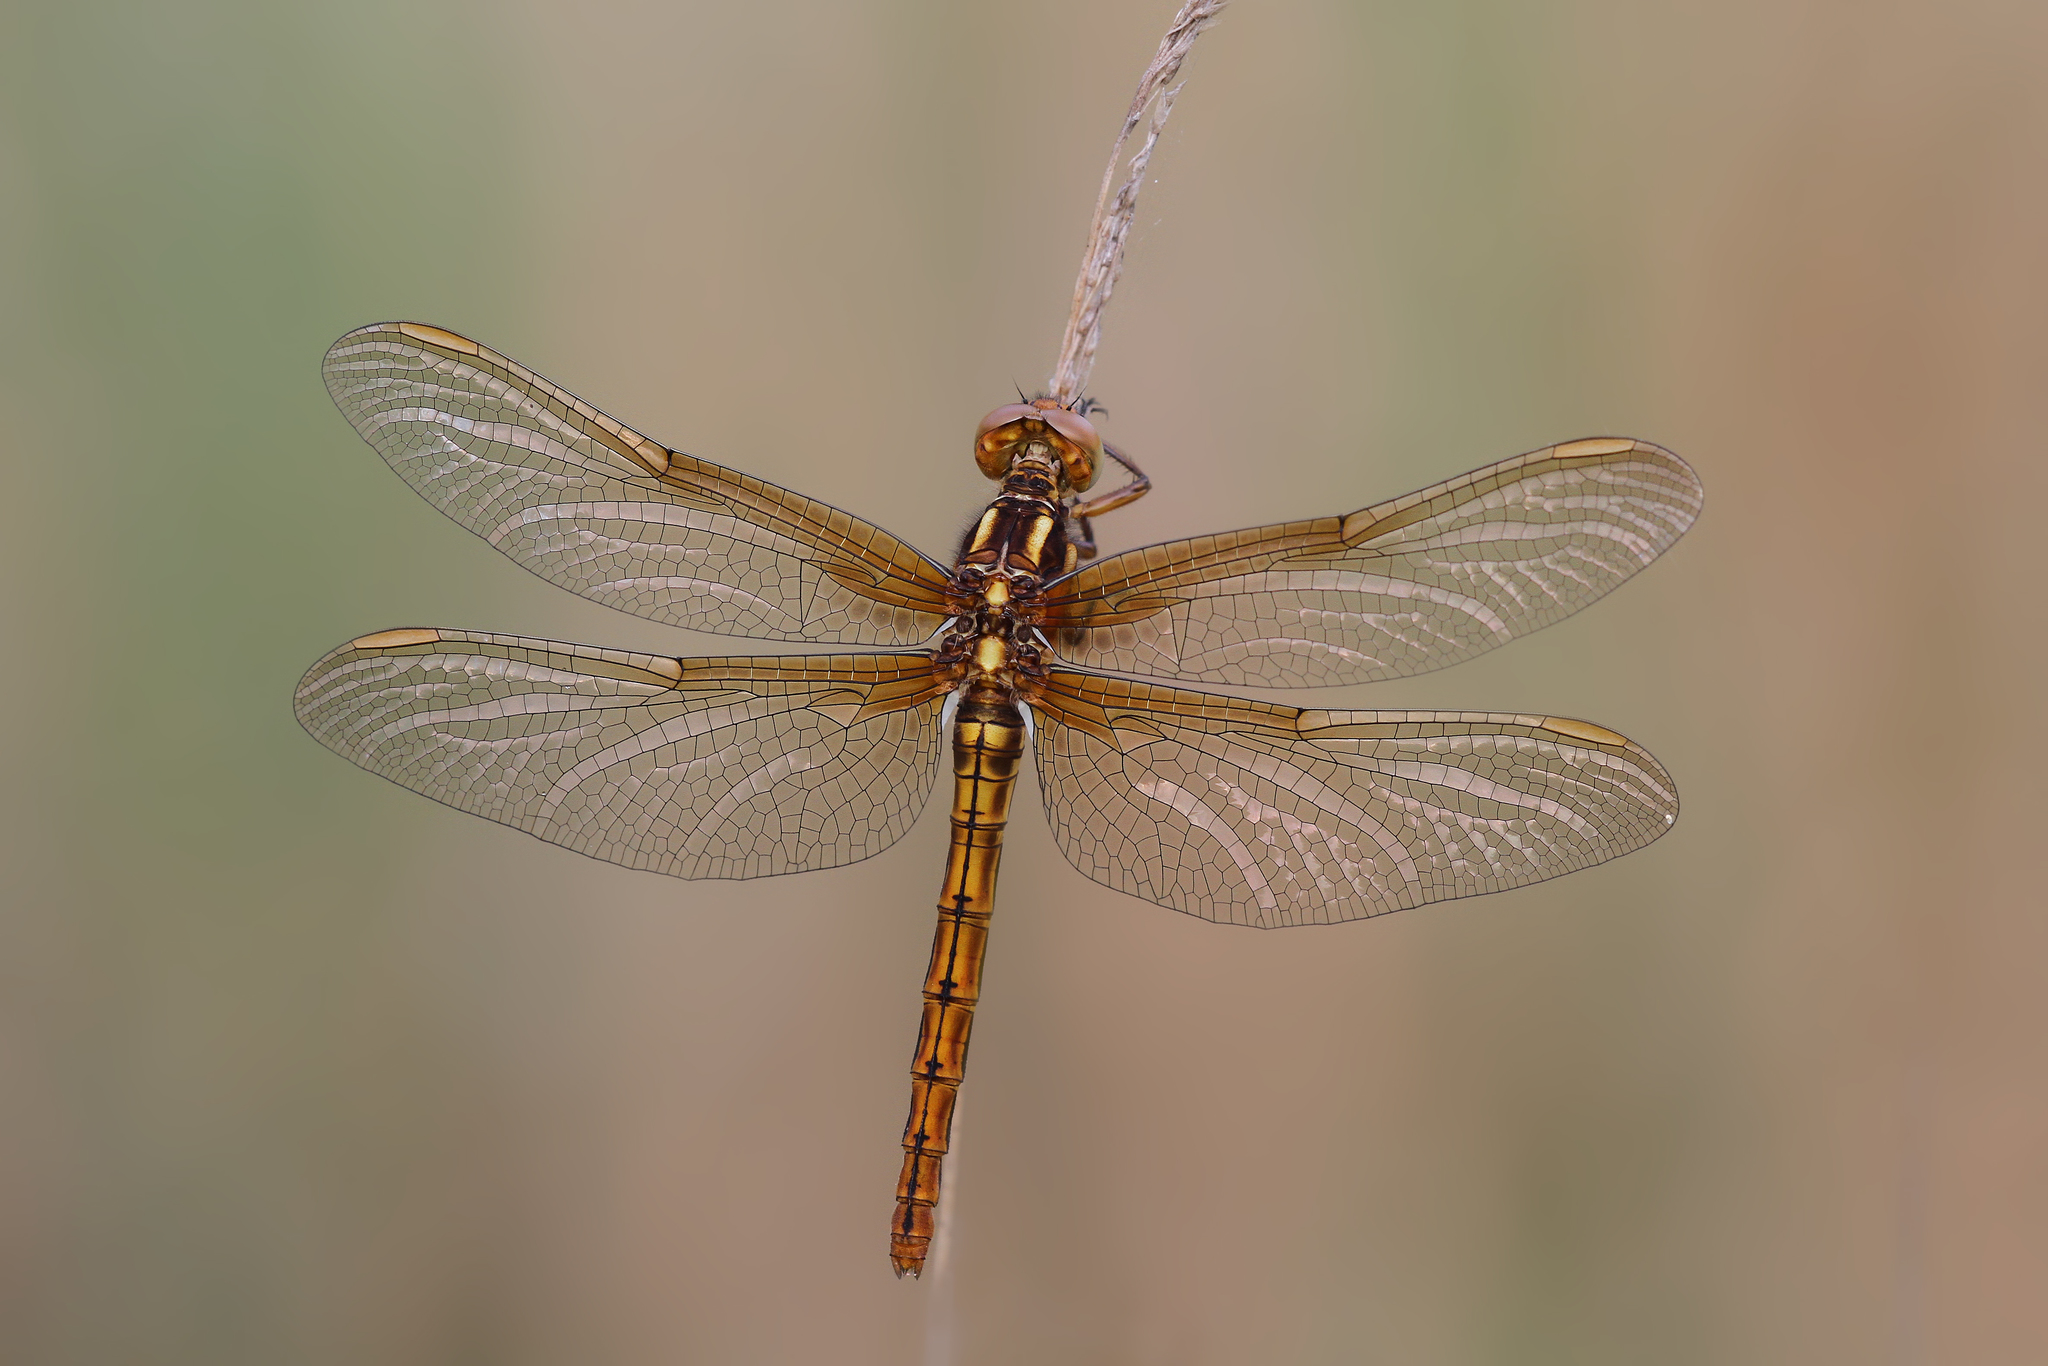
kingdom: Animalia
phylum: Arthropoda
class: Insecta
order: Odonata
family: Libellulidae
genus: Orthetrum
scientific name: Orthetrum coerulescens
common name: Keeled skimmer
